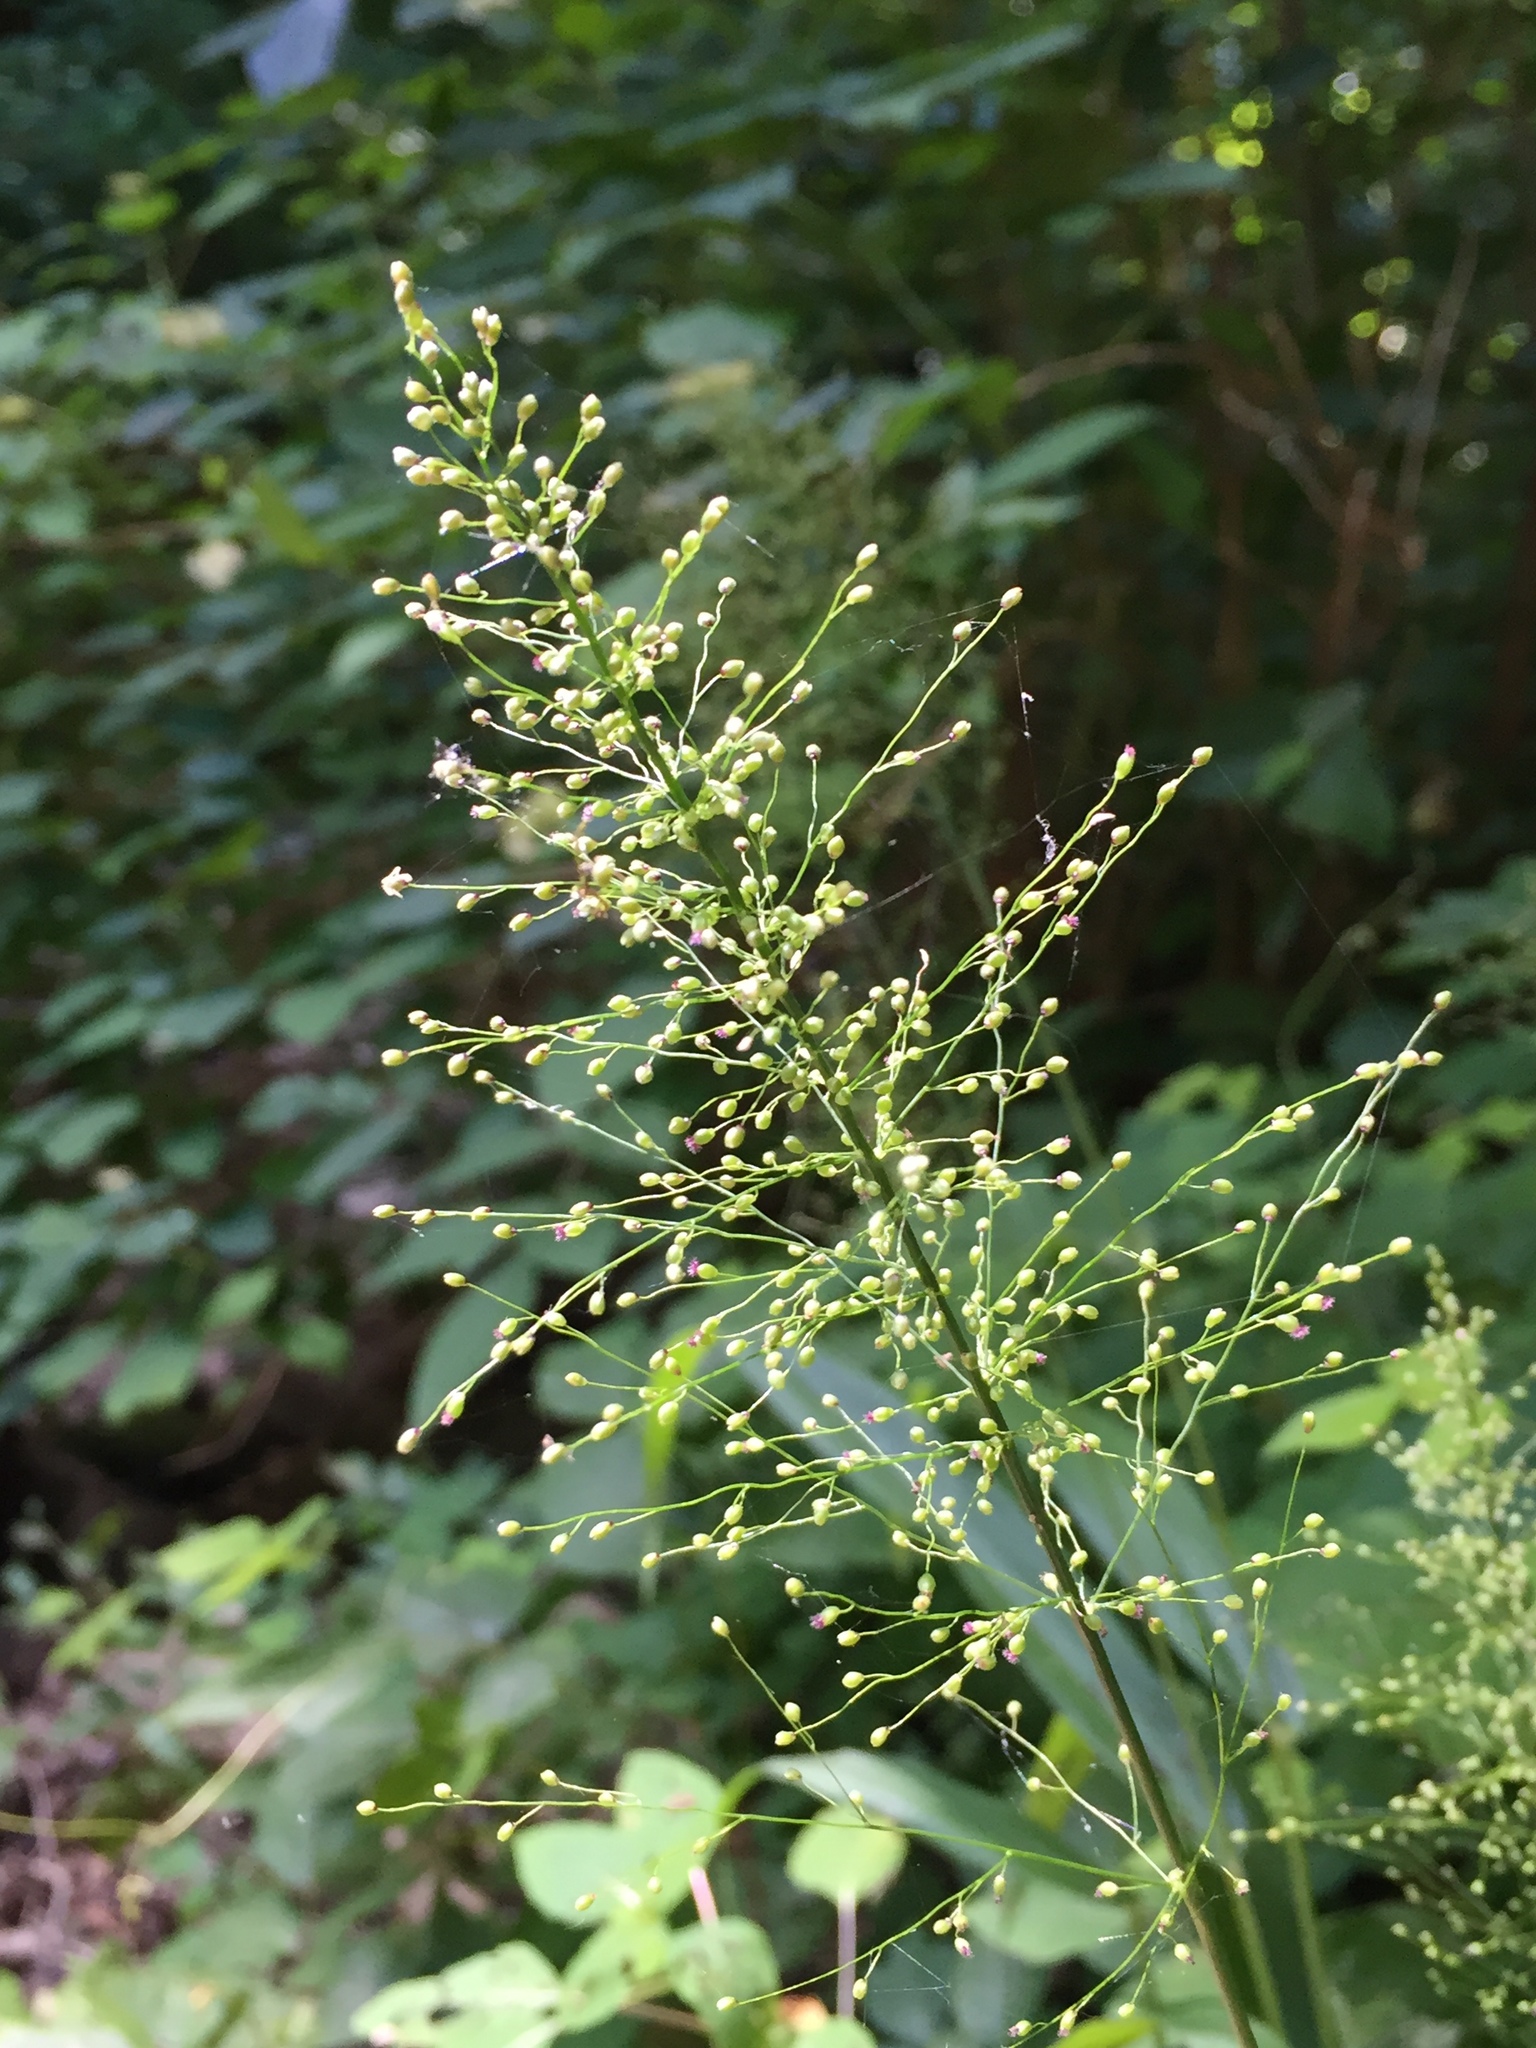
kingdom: Plantae
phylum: Tracheophyta
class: Liliopsida
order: Poales
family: Poaceae
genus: Dichanthelium
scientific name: Dichanthelium polyanthes
